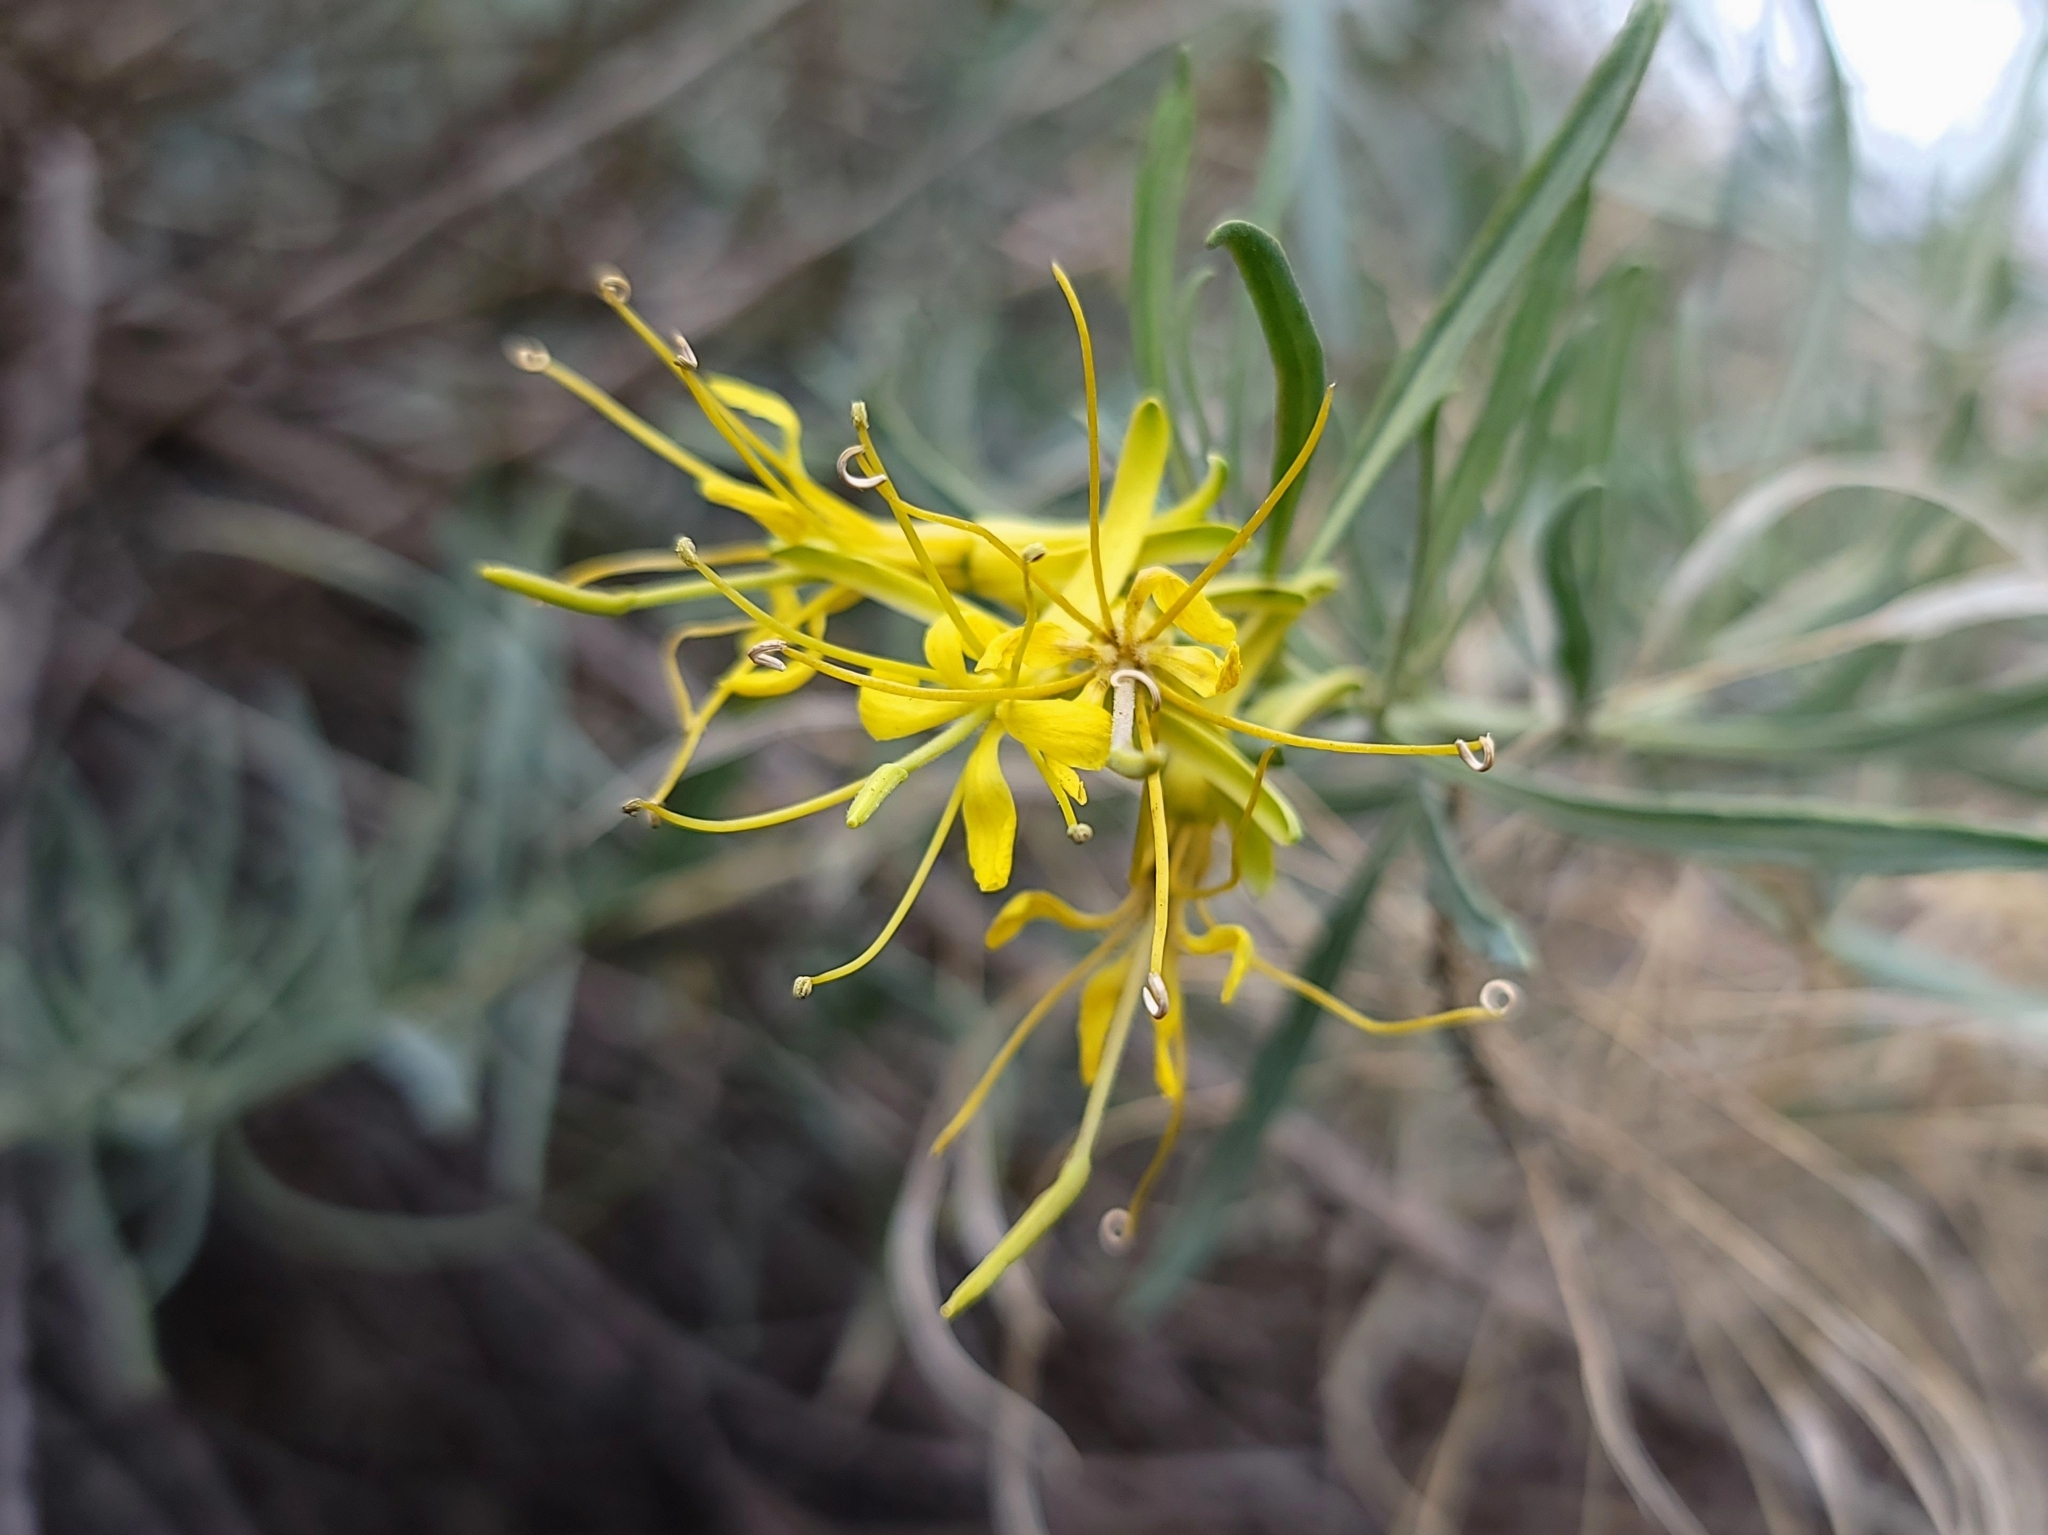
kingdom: Plantae
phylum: Tracheophyta
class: Magnoliopsida
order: Brassicales
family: Brassicaceae
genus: Stanleya
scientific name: Stanleya pinnata
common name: Prince's-plume
